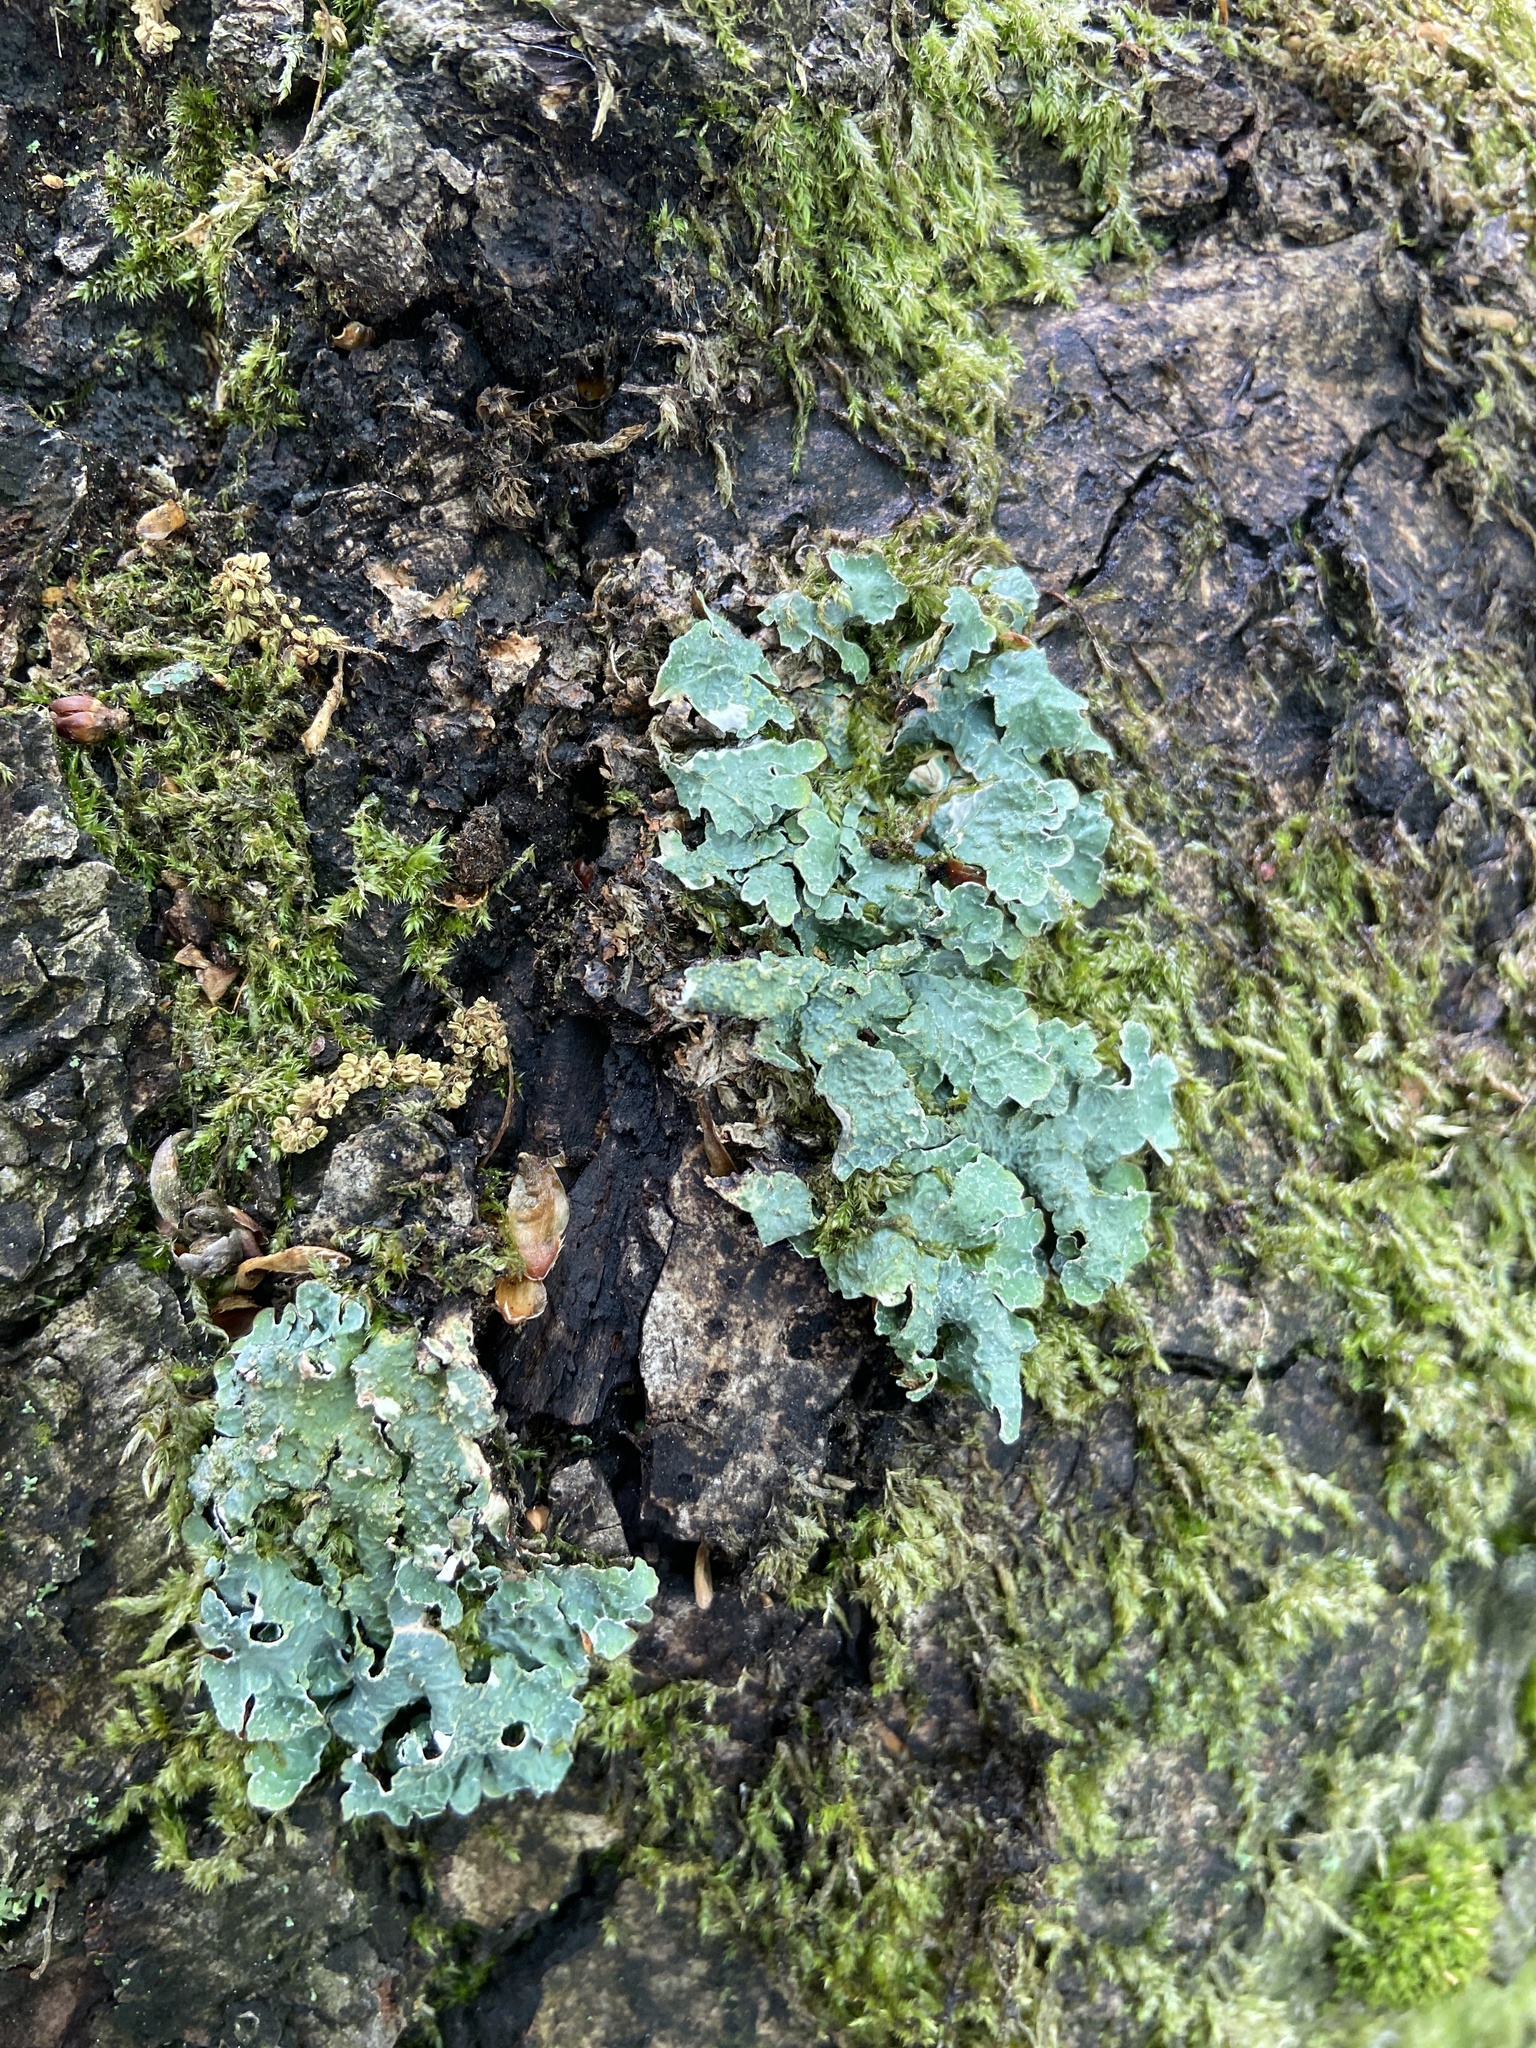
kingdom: Fungi
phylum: Ascomycota
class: Lecanoromycetes
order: Lecanorales
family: Parmeliaceae
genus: Parmelia
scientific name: Parmelia sulcata
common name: Netted shield lichen
